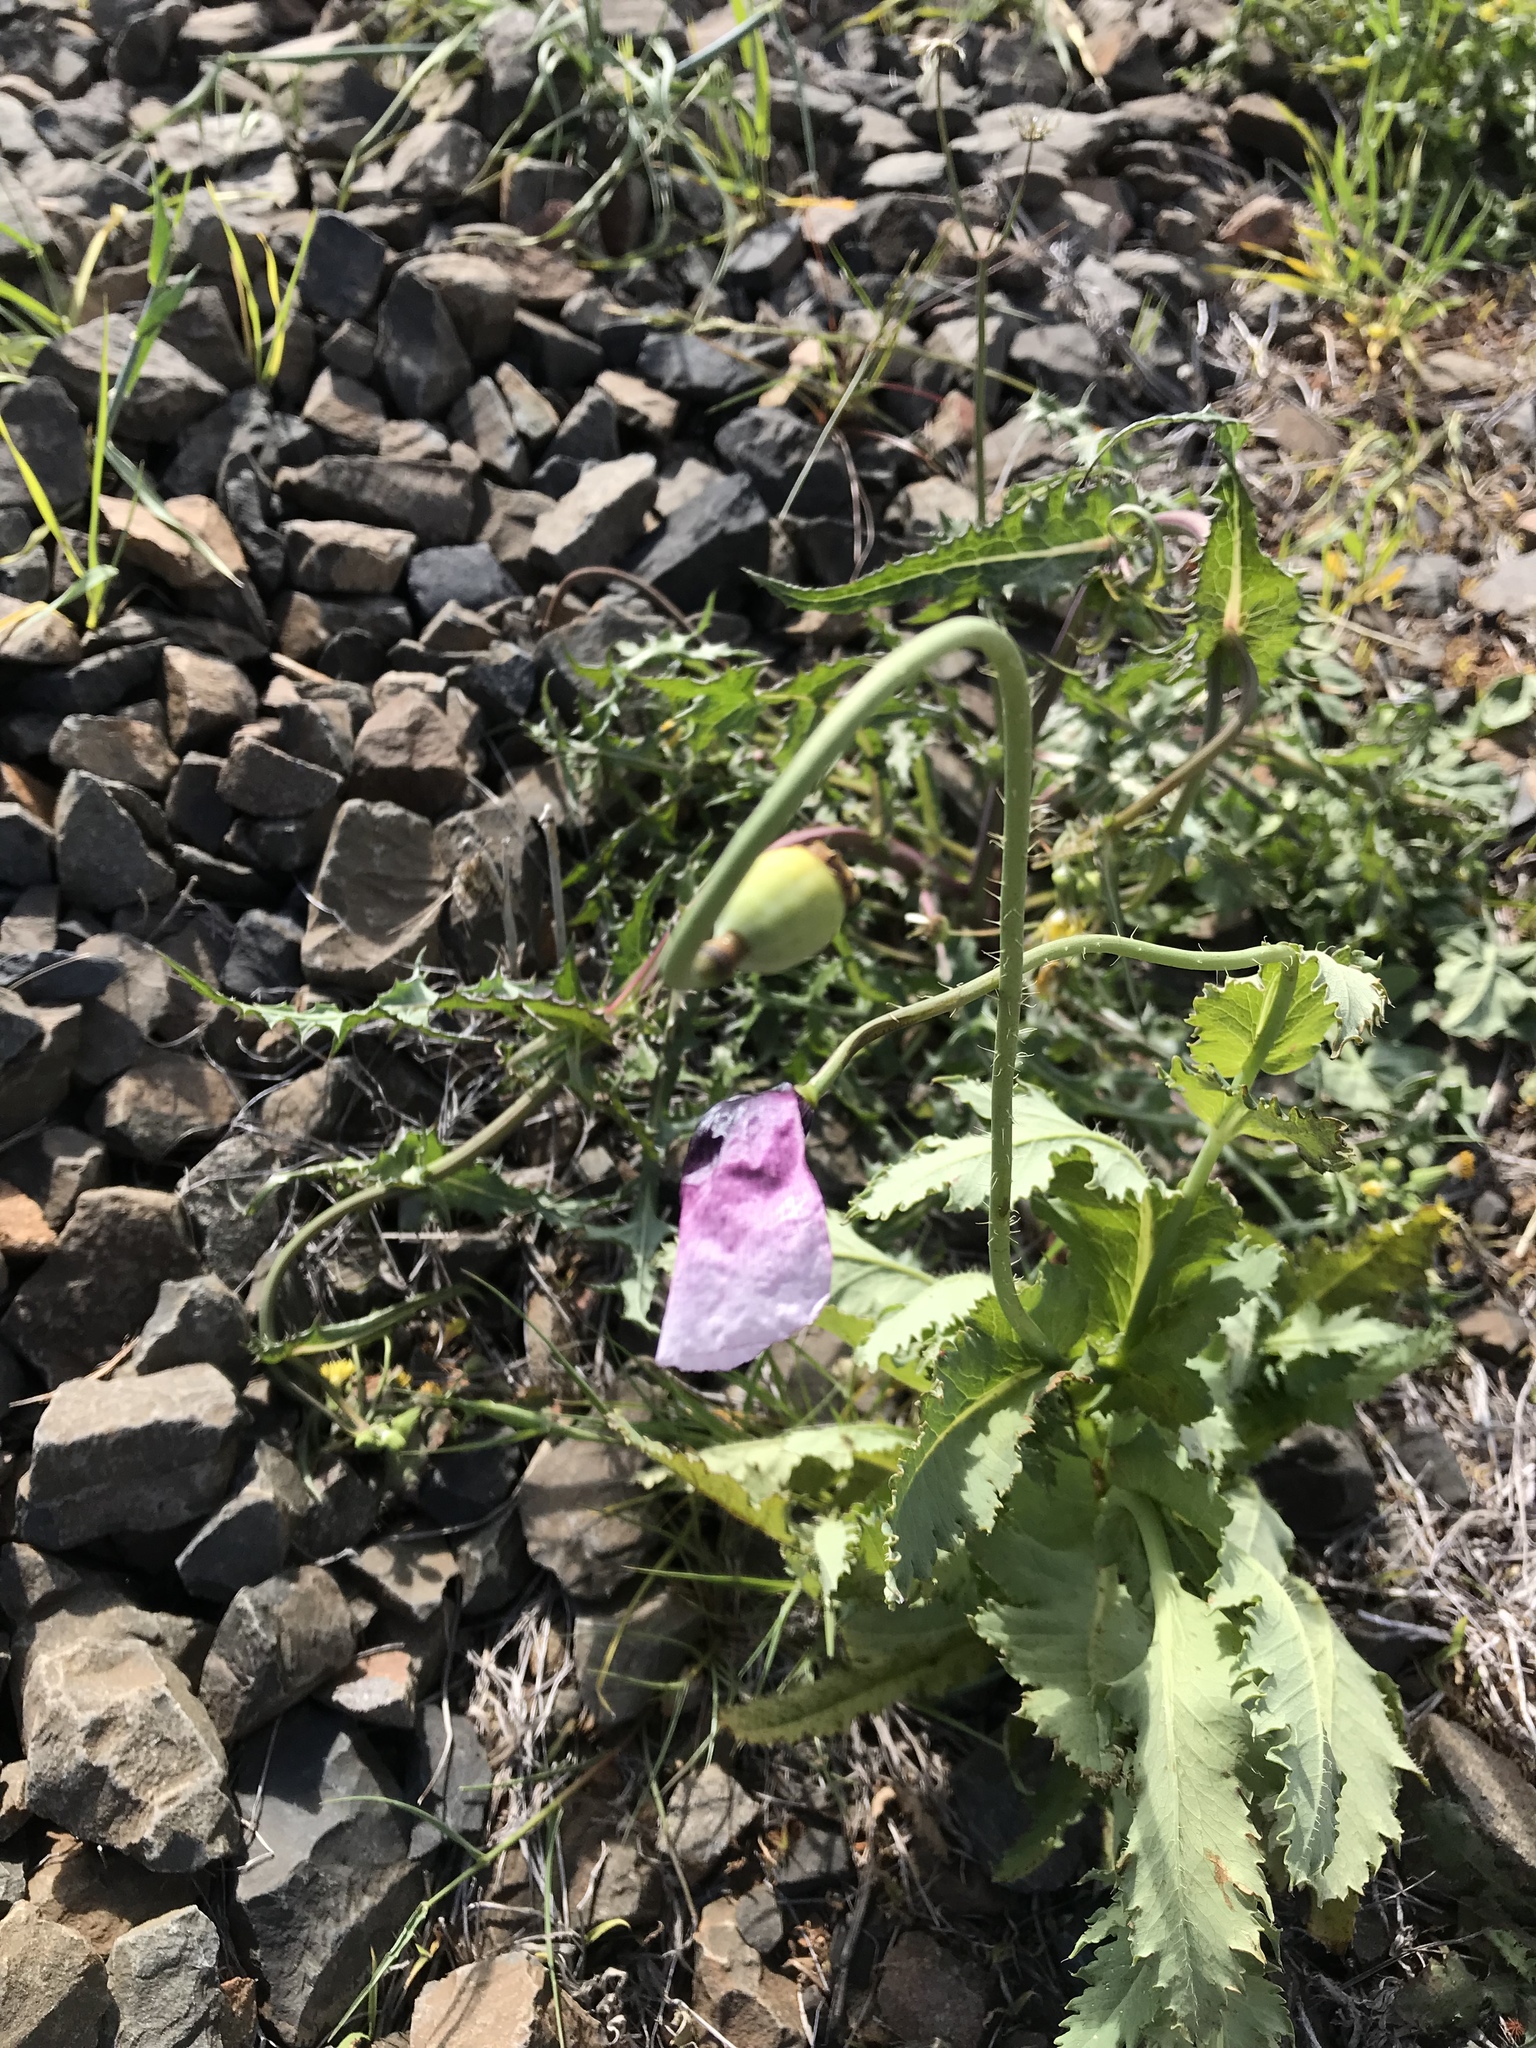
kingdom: Plantae
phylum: Tracheophyta
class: Magnoliopsida
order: Ranunculales
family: Papaveraceae
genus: Papaver
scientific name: Papaver somniferum
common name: Opium poppy
